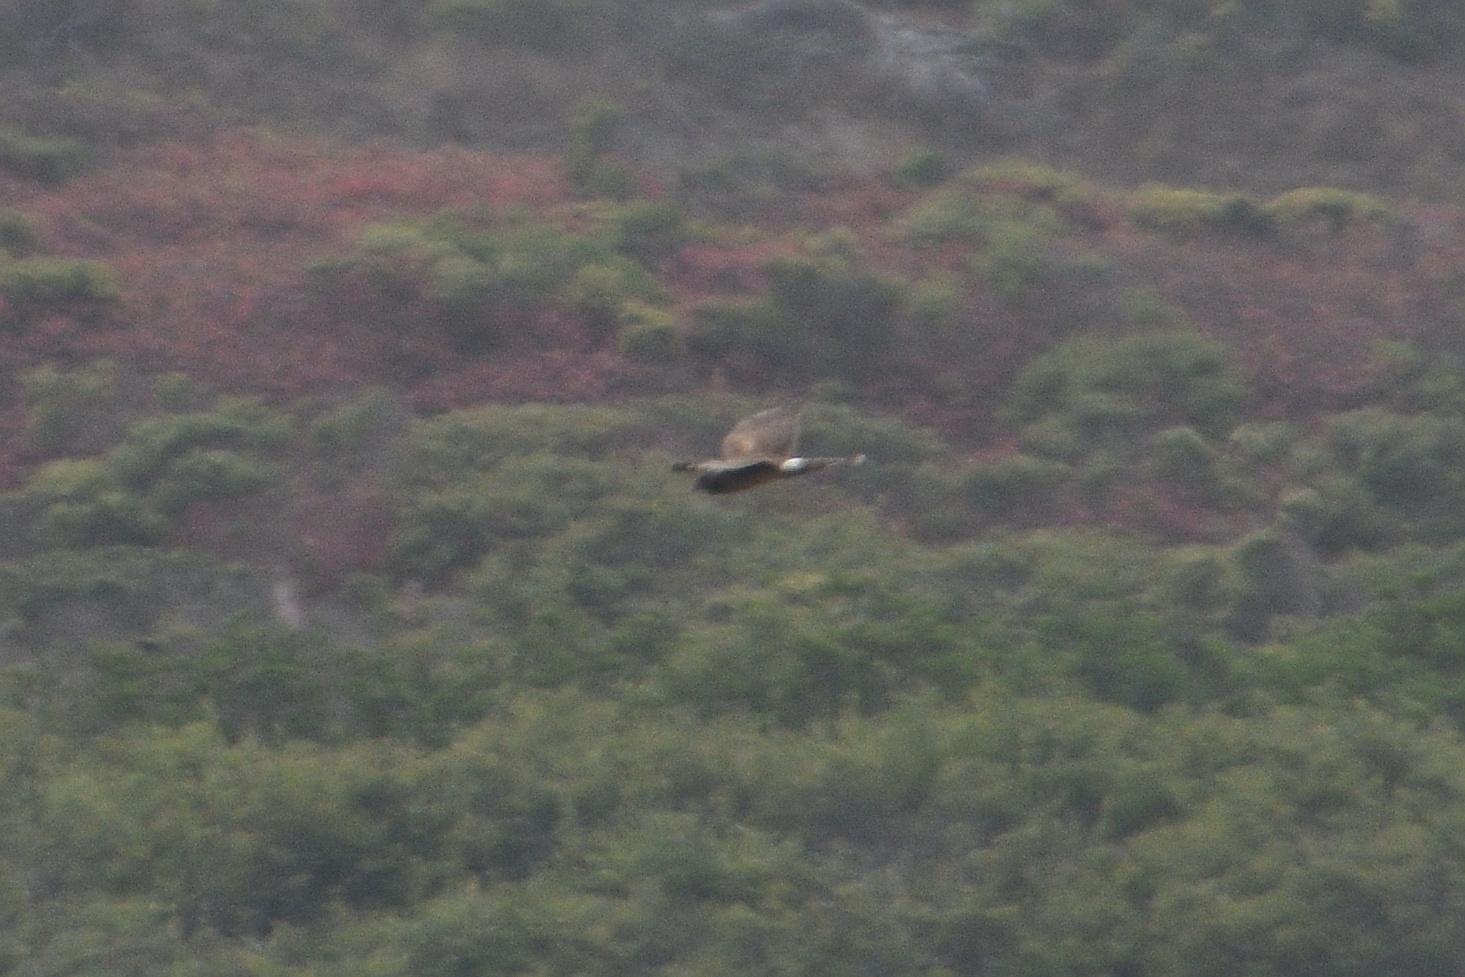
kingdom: Animalia
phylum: Chordata
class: Aves
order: Accipitriformes
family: Accipitridae
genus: Circus
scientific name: Circus cyaneus
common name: Hen harrier
